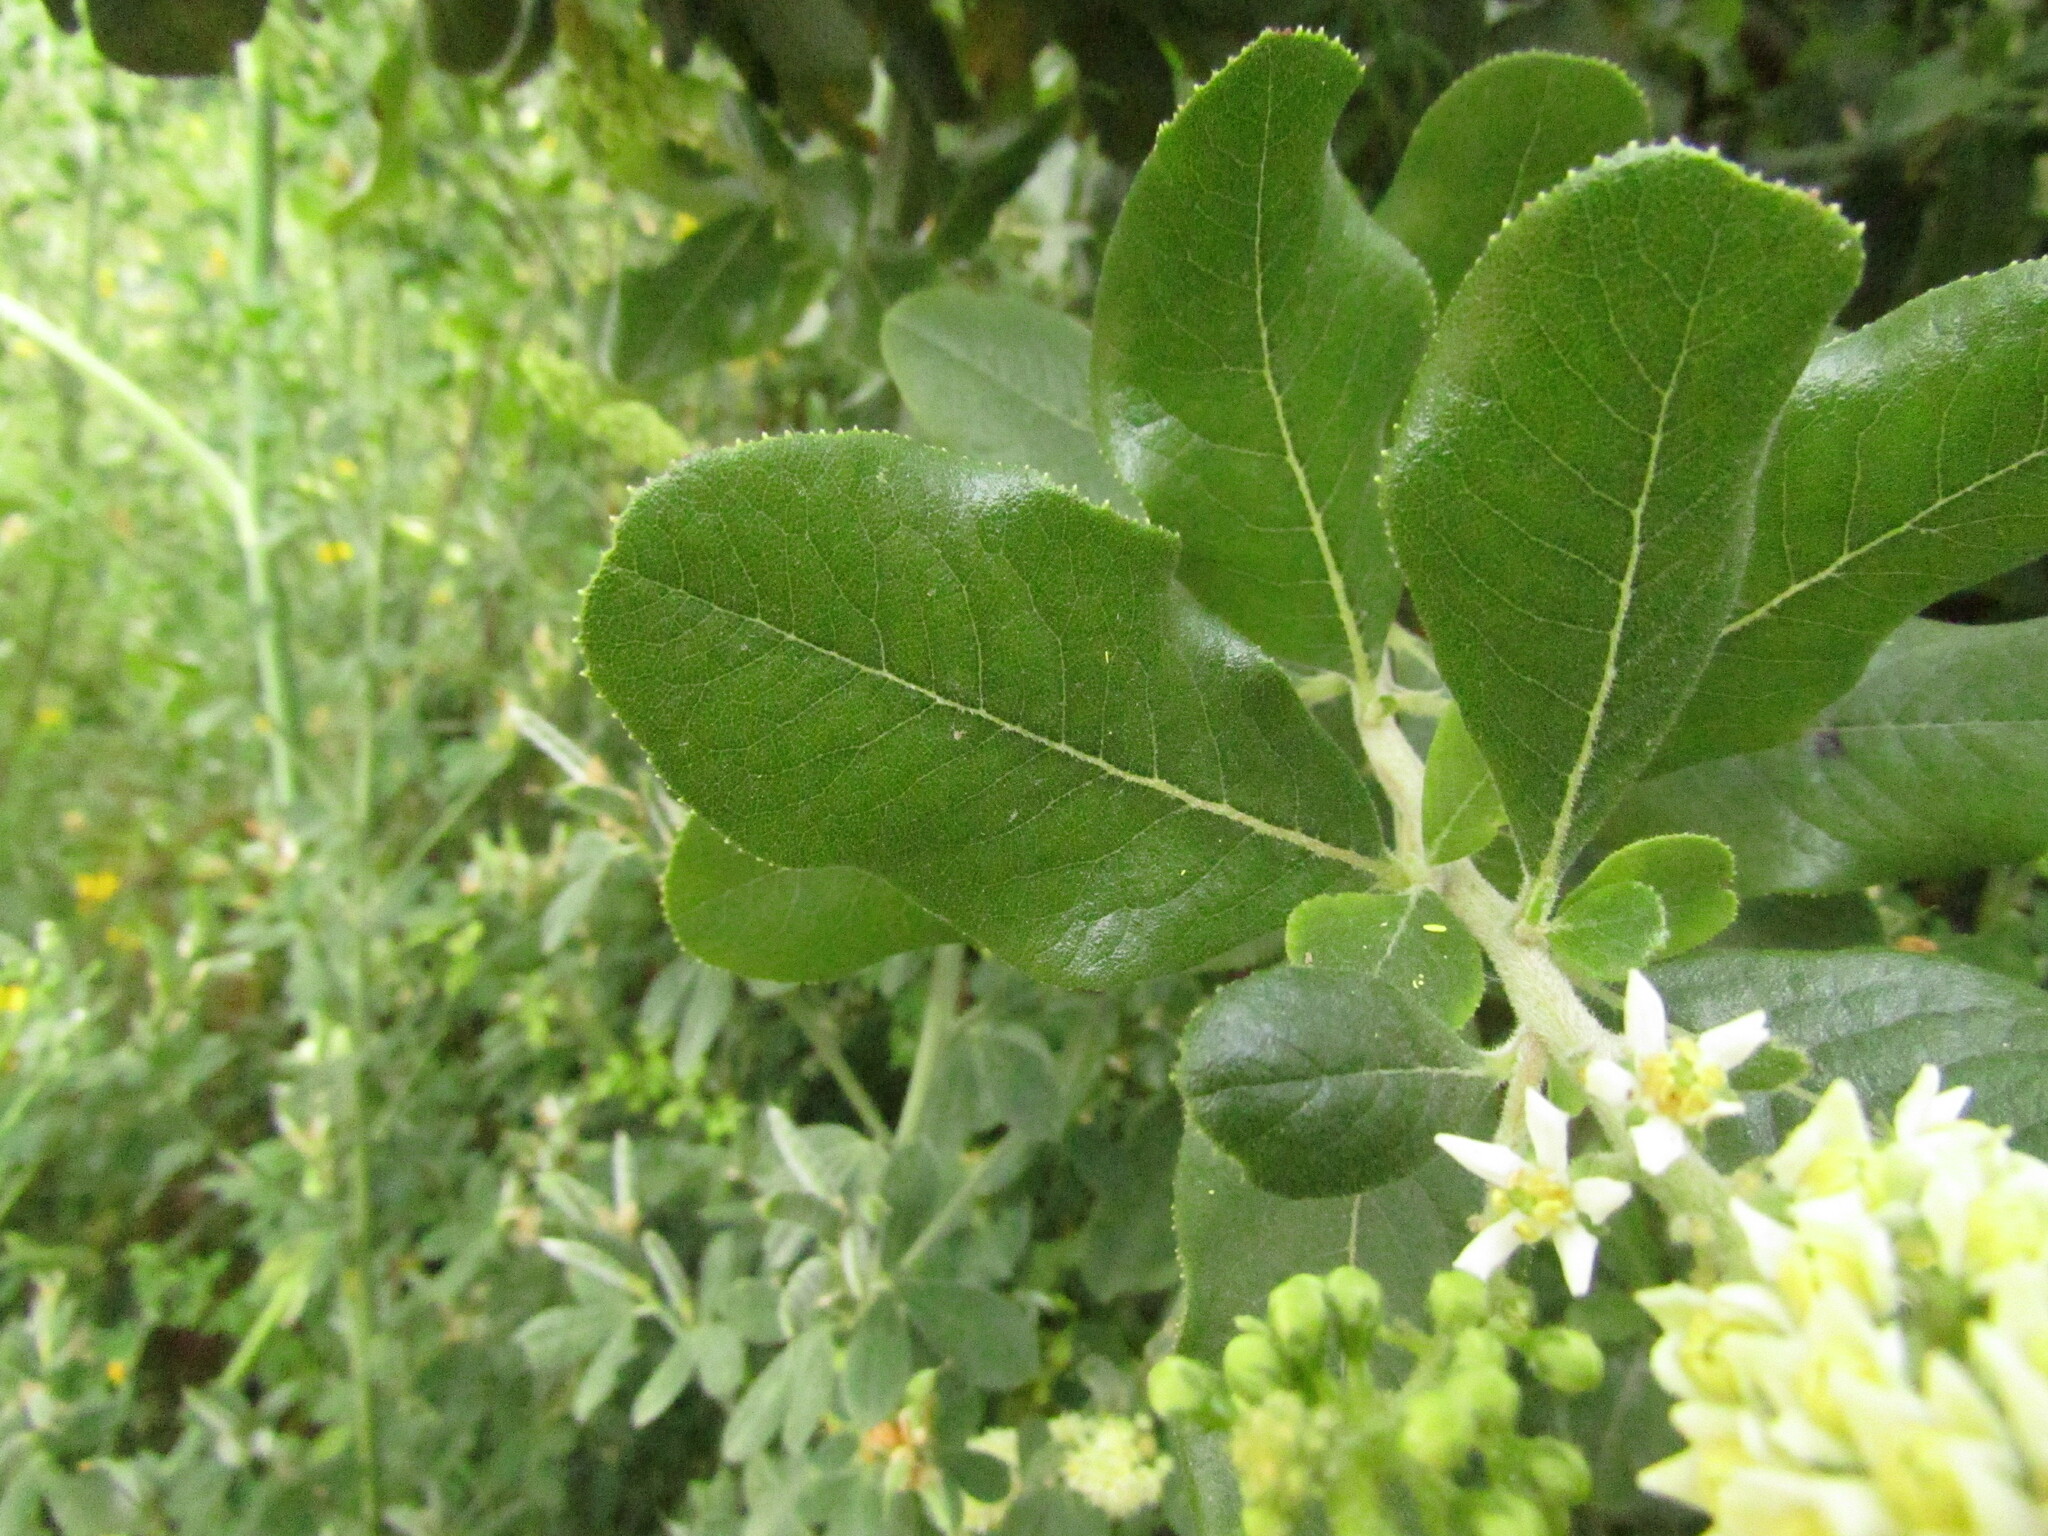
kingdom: Plantae
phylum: Tracheophyta
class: Magnoliopsida
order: Escalloniales
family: Escalloniaceae
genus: Escallonia
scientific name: Escallonia pulverulenta
